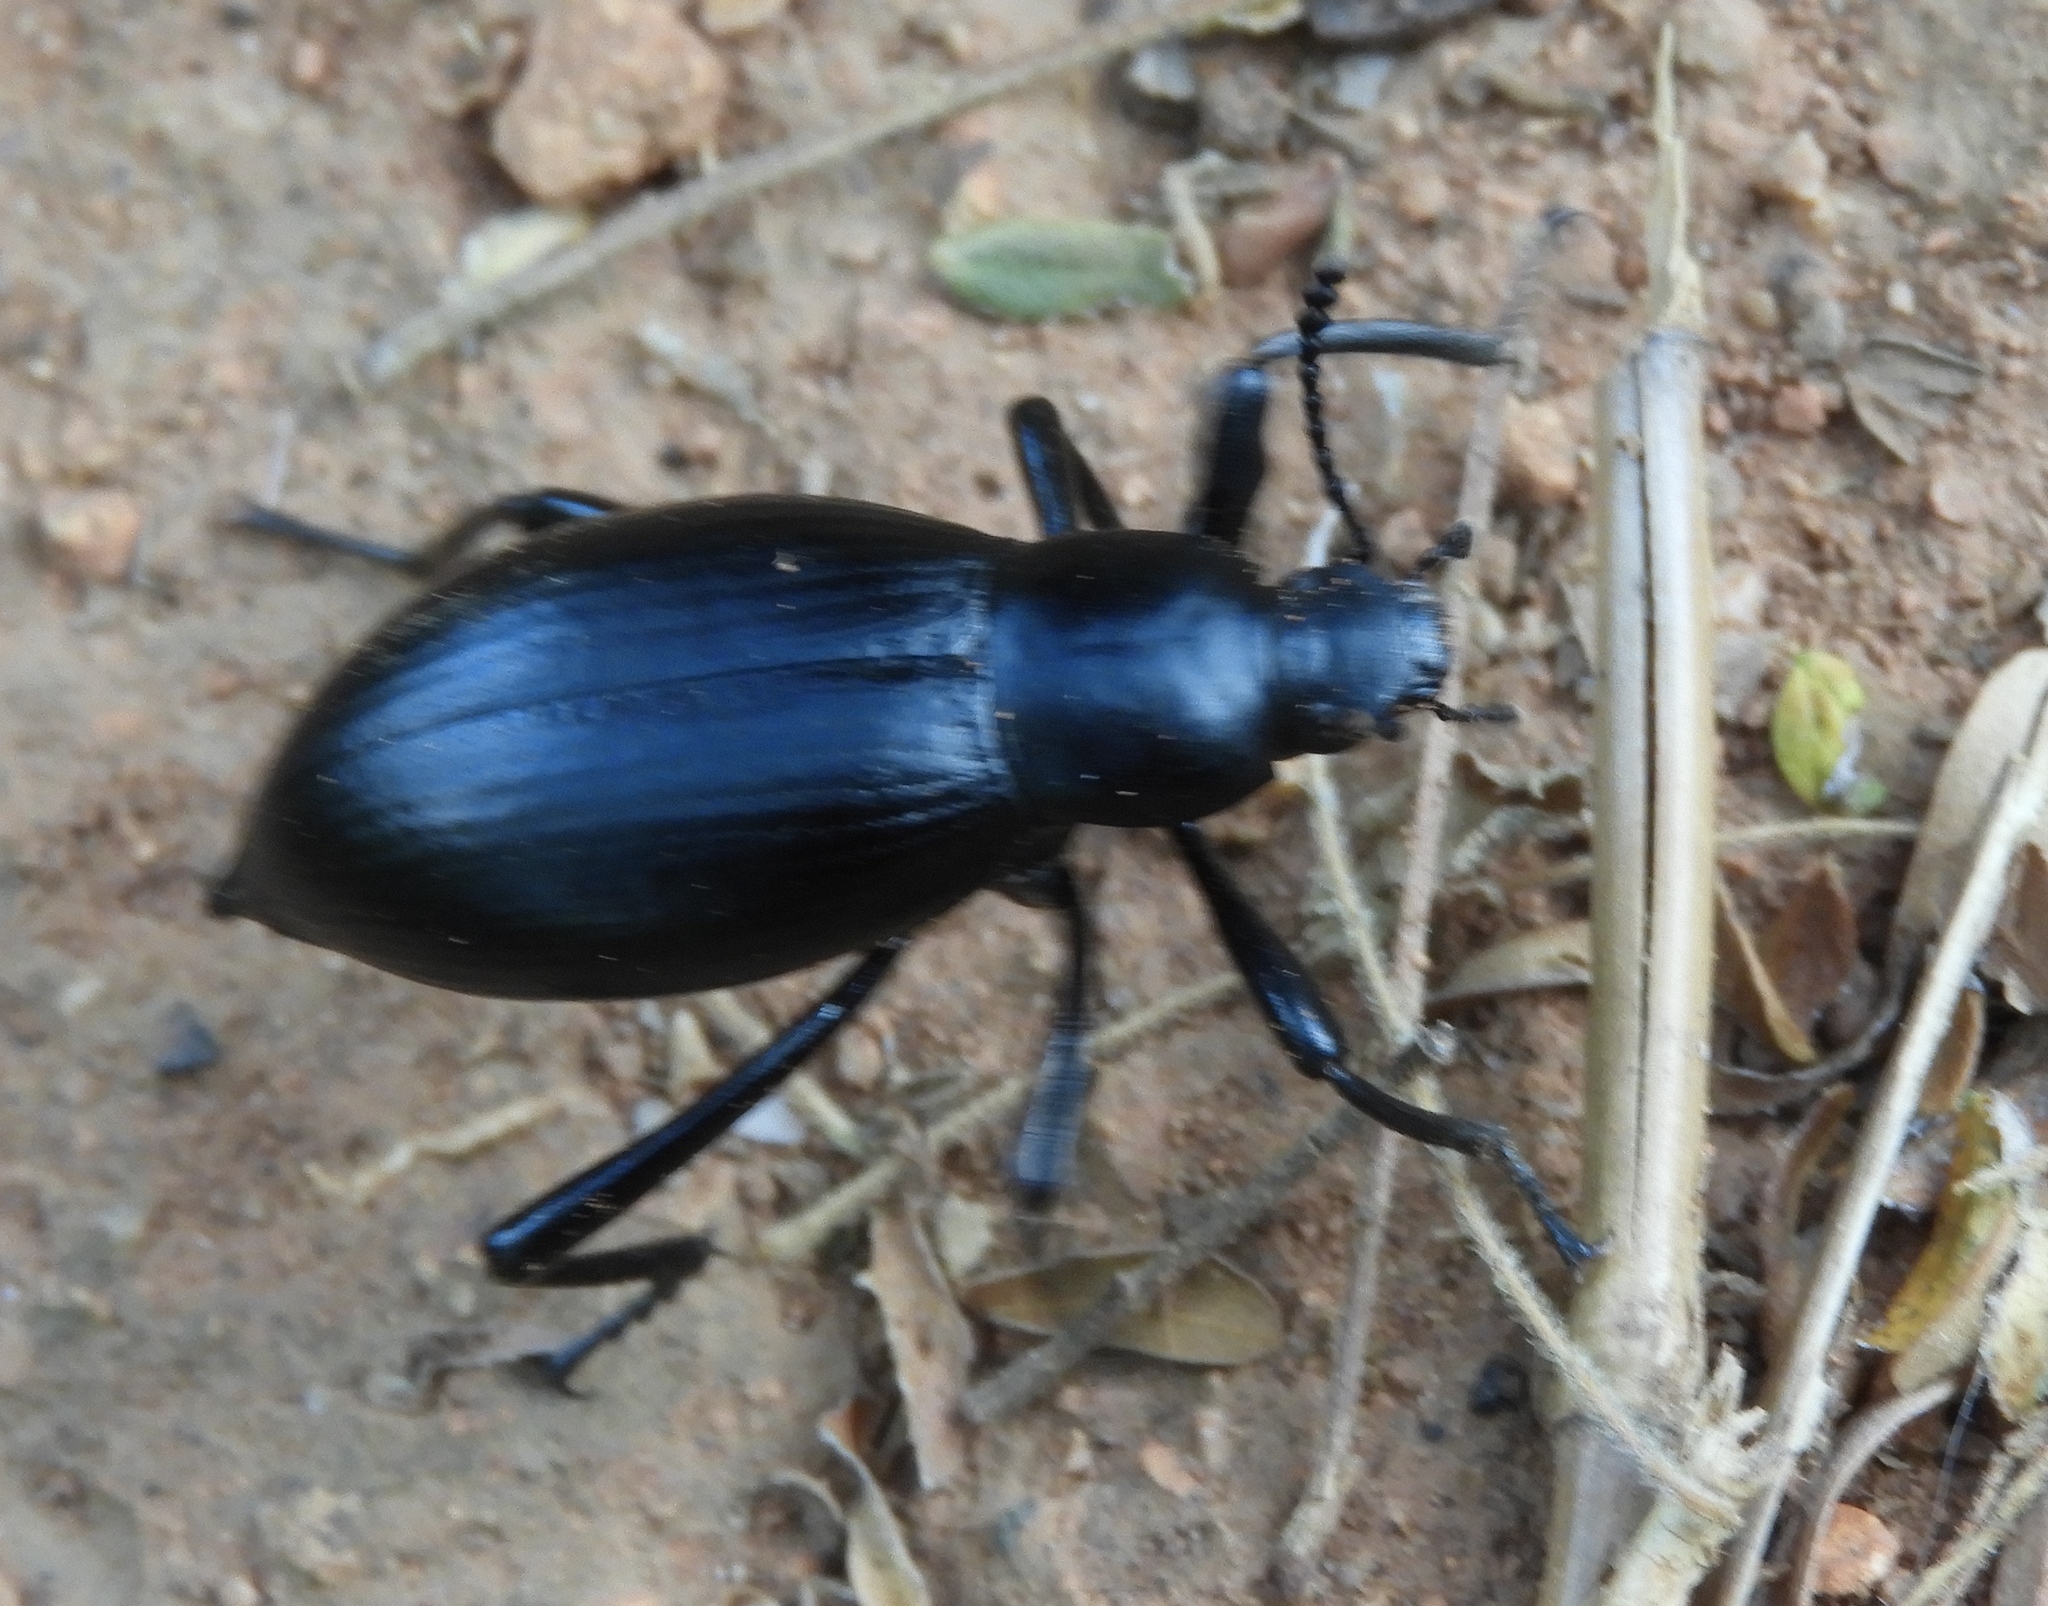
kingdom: Animalia
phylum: Arthropoda
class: Insecta
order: Coleoptera
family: Tenebrionidae
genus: Eleodes
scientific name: Eleodes eschscholtzii
